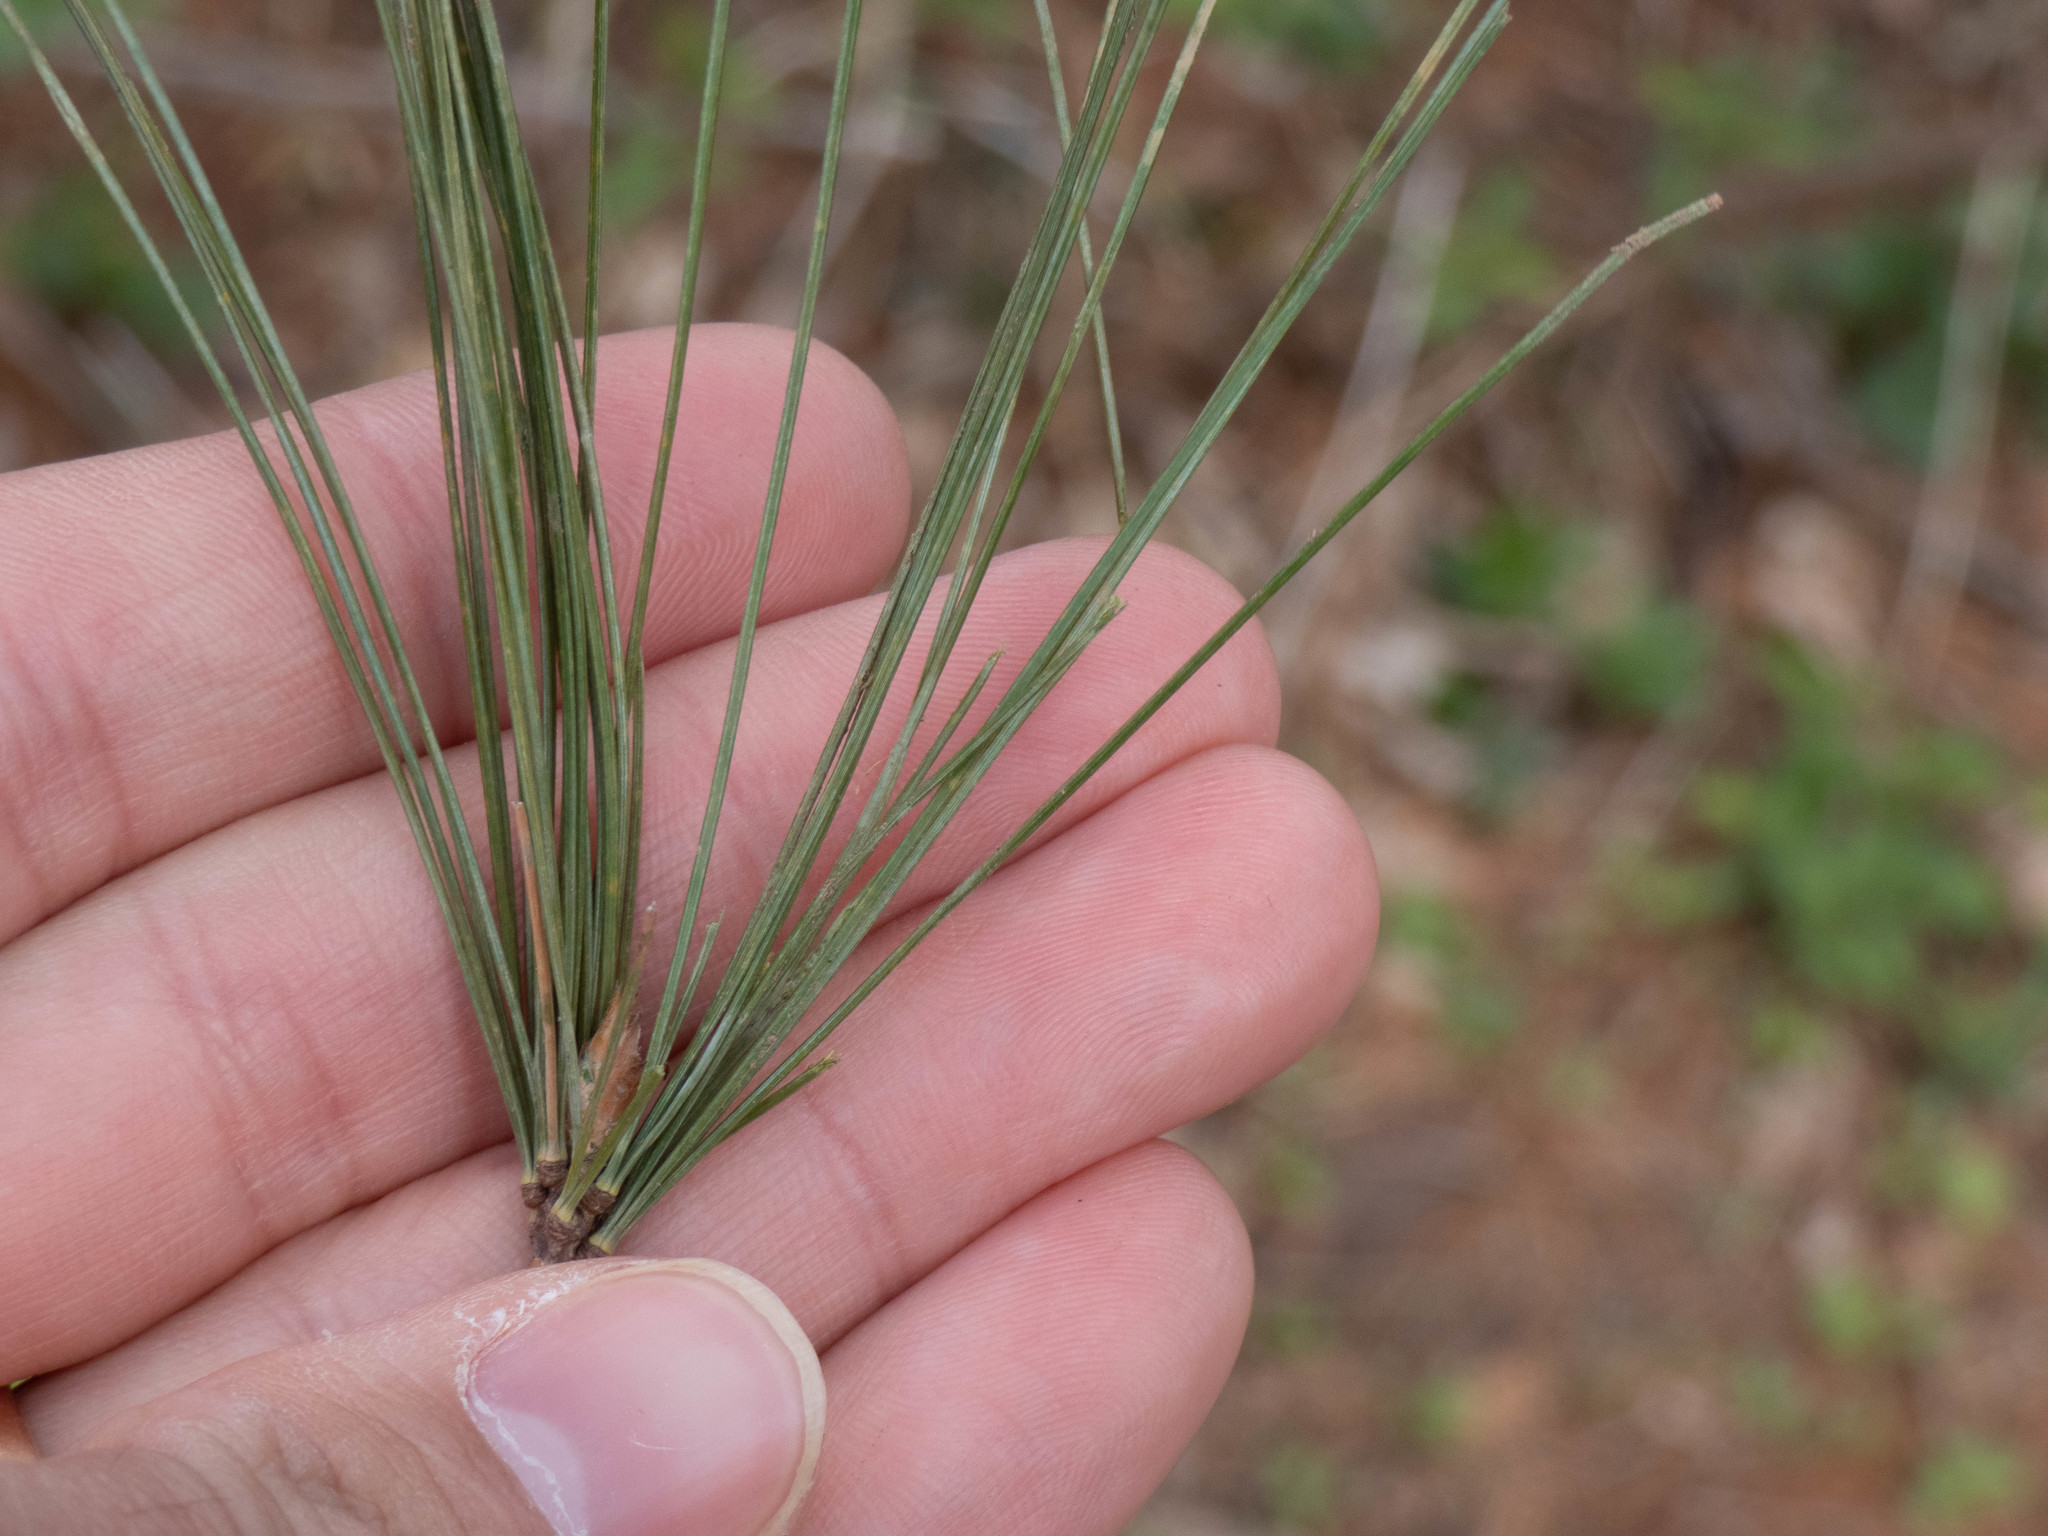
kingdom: Plantae
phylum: Tracheophyta
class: Pinopsida
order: Pinales
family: Pinaceae
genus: Pinus
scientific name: Pinus strobus
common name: Weymouth pine
